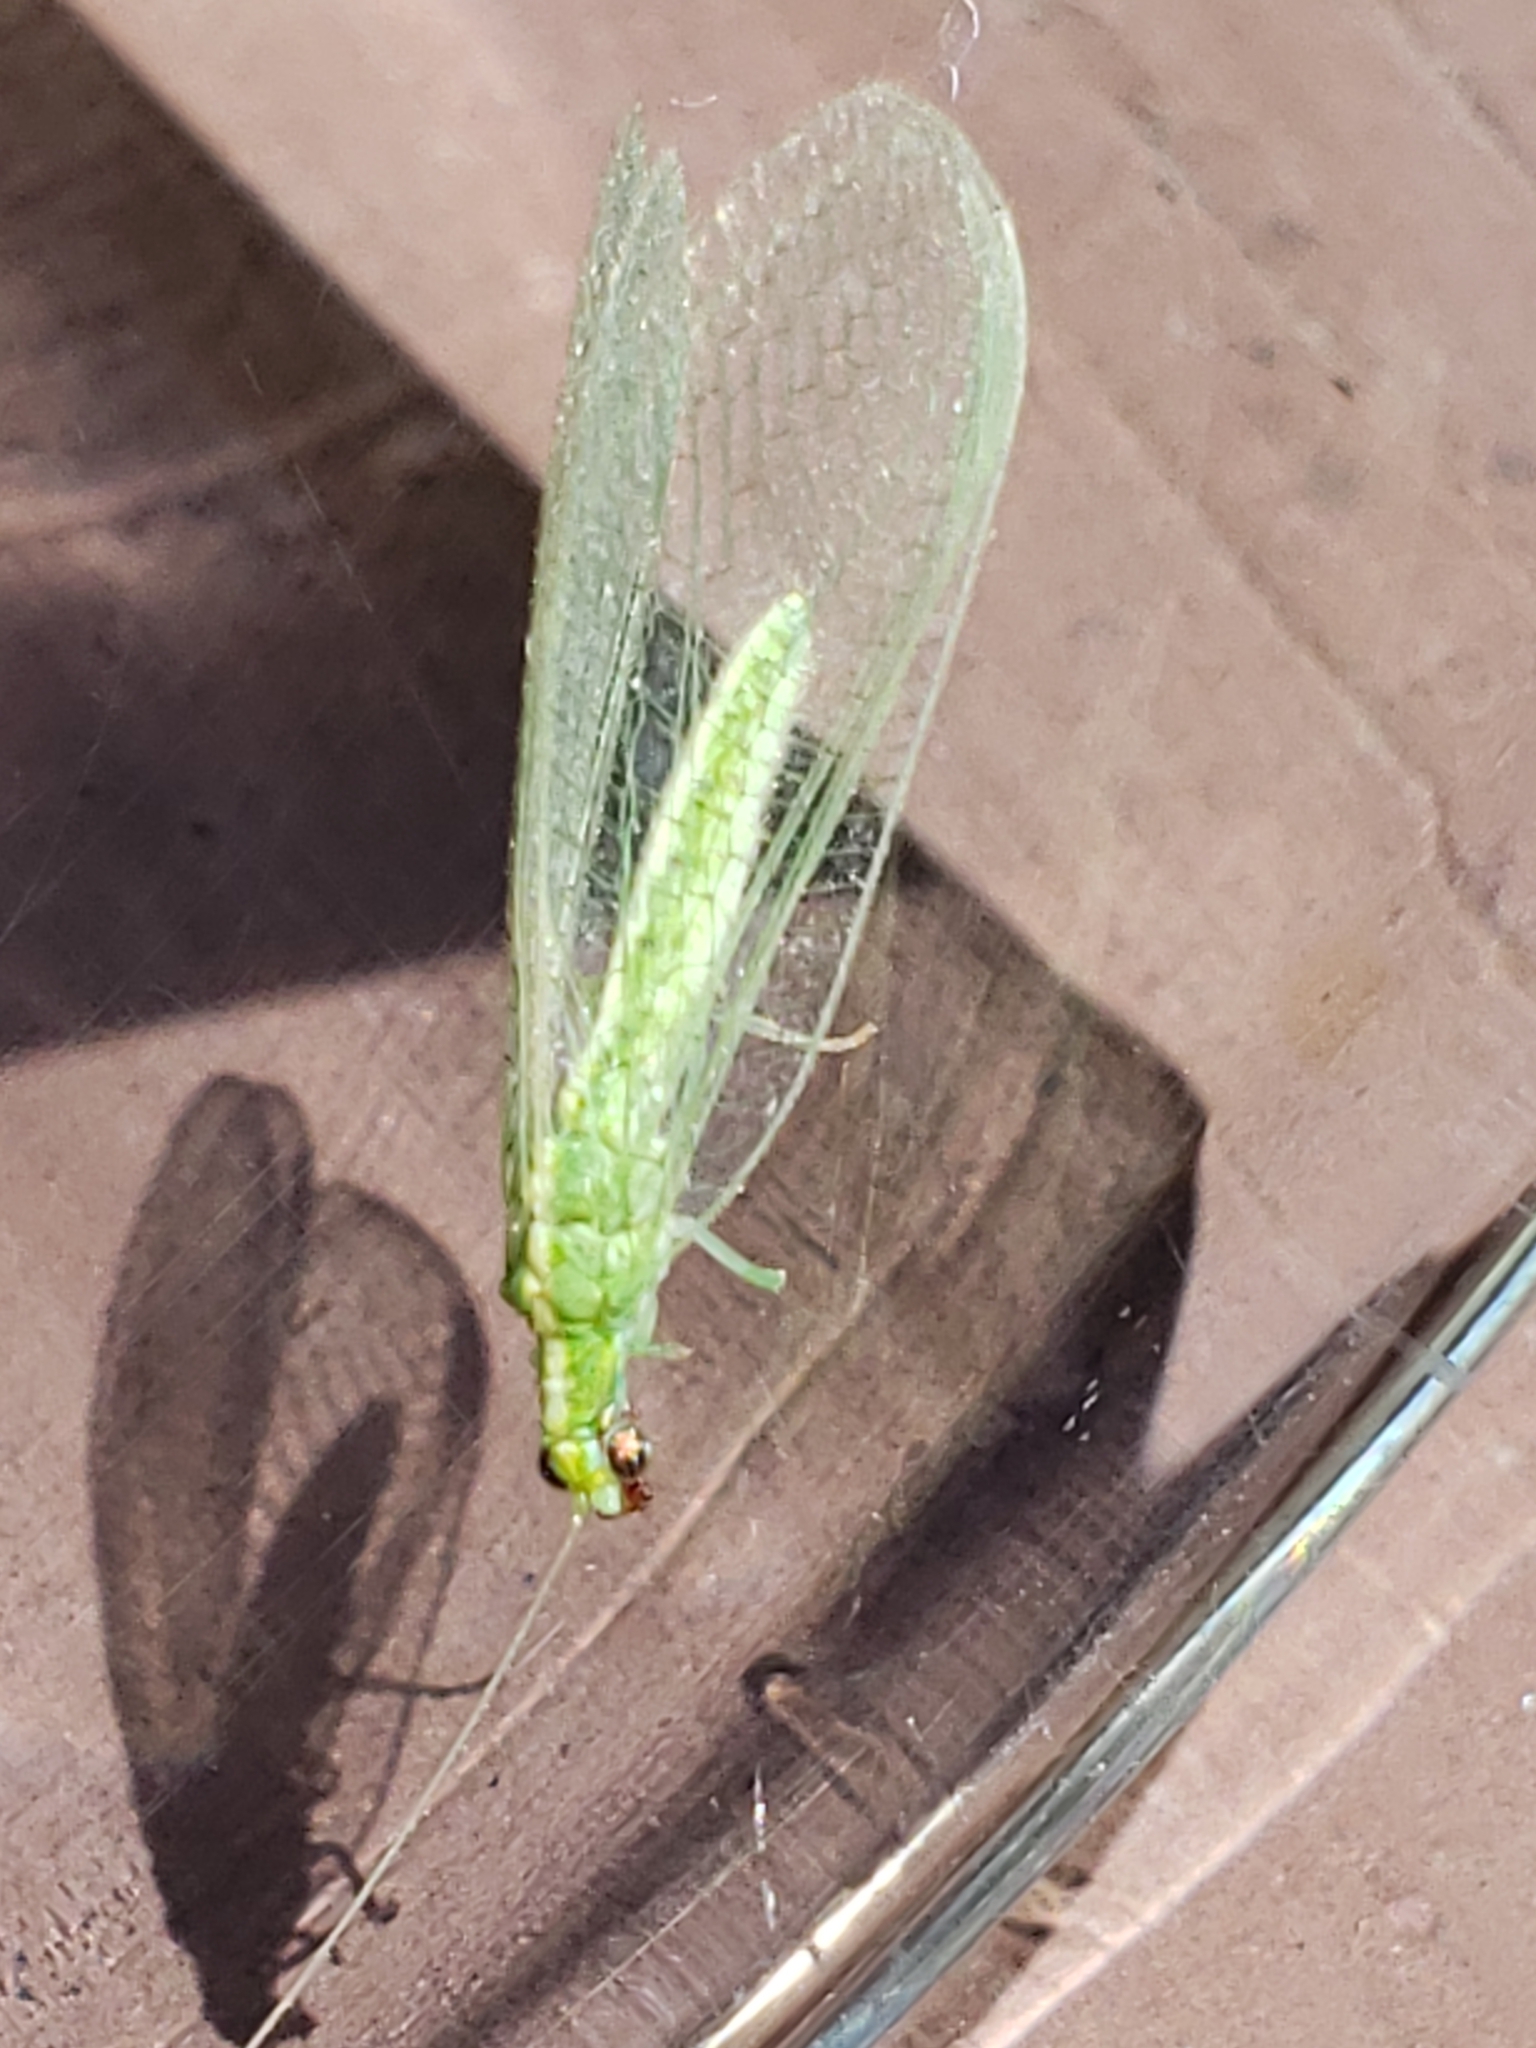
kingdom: Animalia
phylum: Arthropoda
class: Insecta
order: Neuroptera
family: Chrysopidae
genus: Chrysoperla
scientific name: Chrysoperla rufilabris
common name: Red-lipped green lacewing
